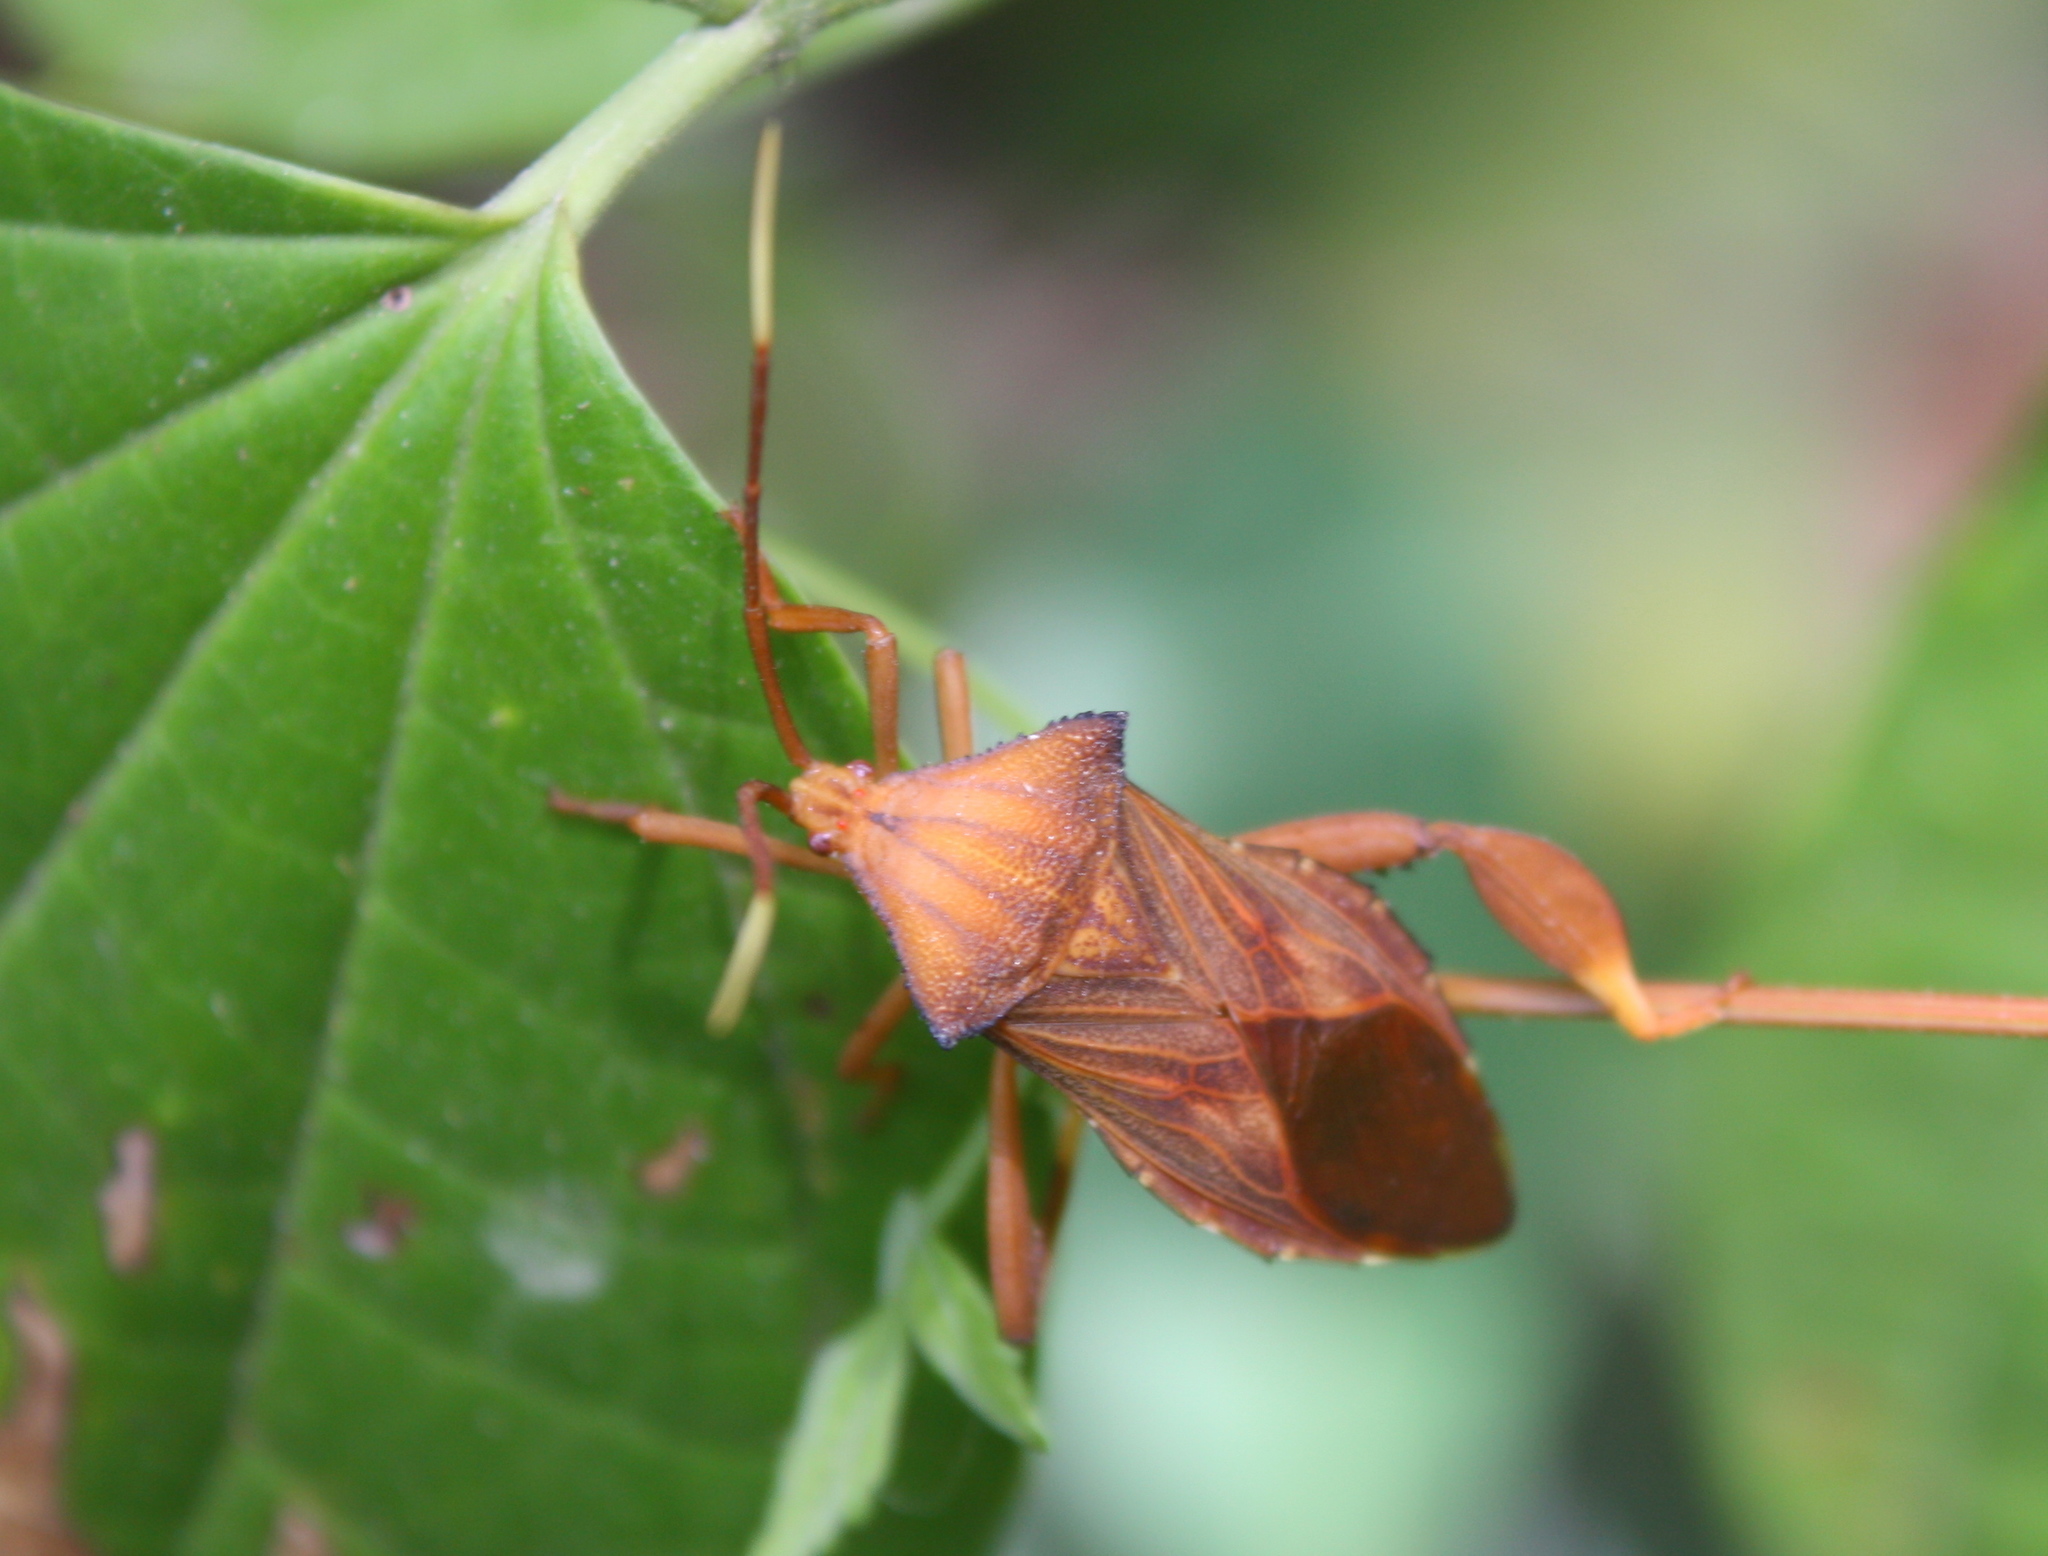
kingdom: Animalia
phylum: Arthropoda
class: Insecta
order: Hemiptera
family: Coreidae
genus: Melucha
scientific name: Melucha quadrivittis
